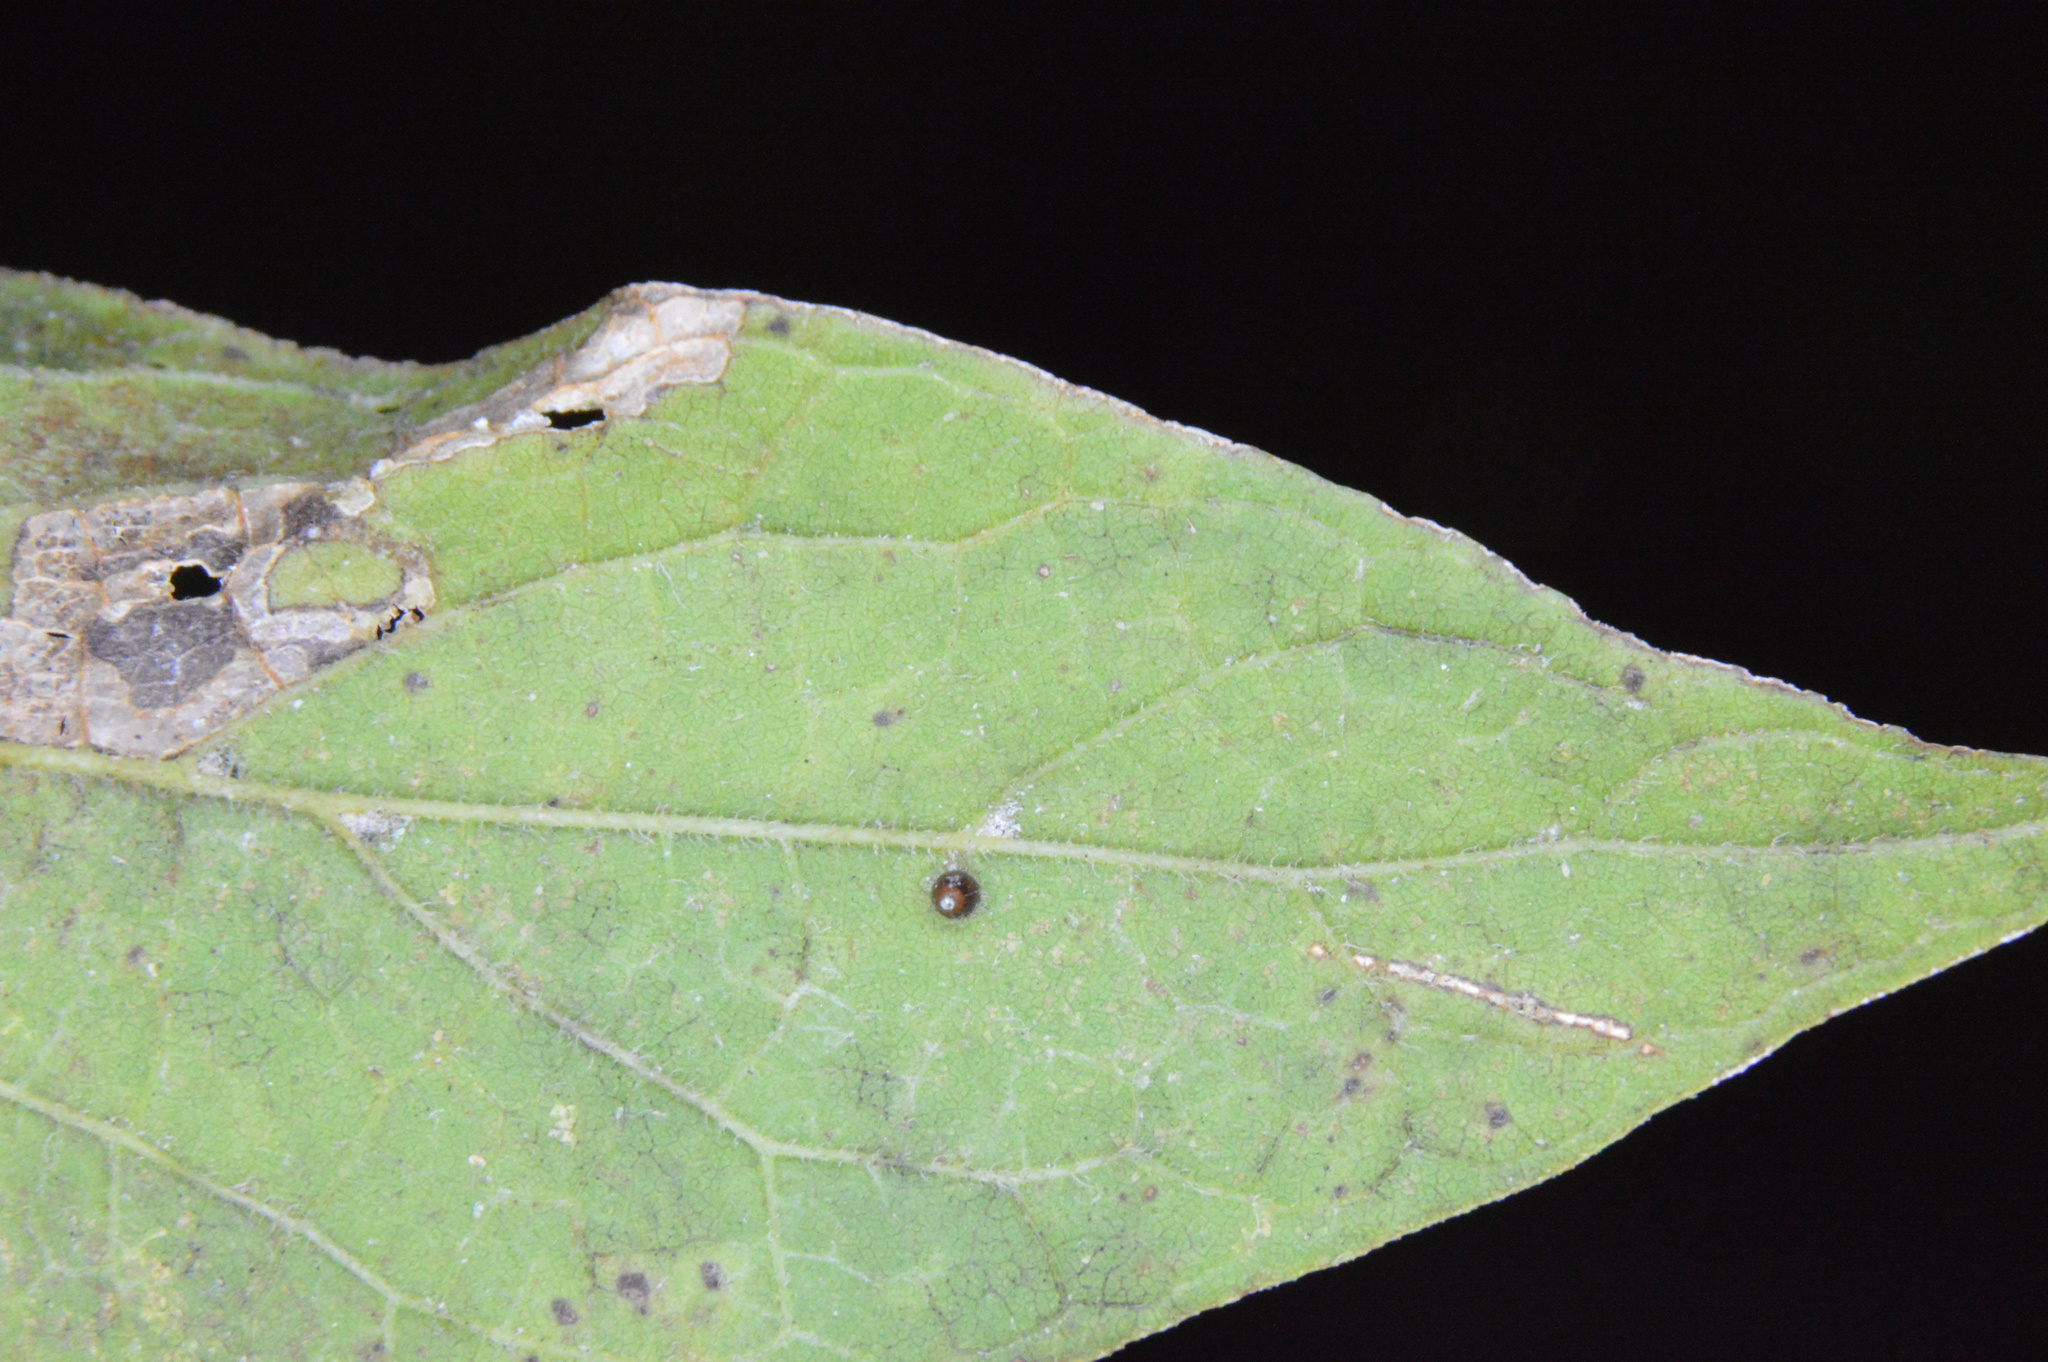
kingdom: Animalia
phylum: Arthropoda
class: Insecta
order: Diptera
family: Cecidomyiidae
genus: Celticecis
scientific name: Celticecis cupiformis
